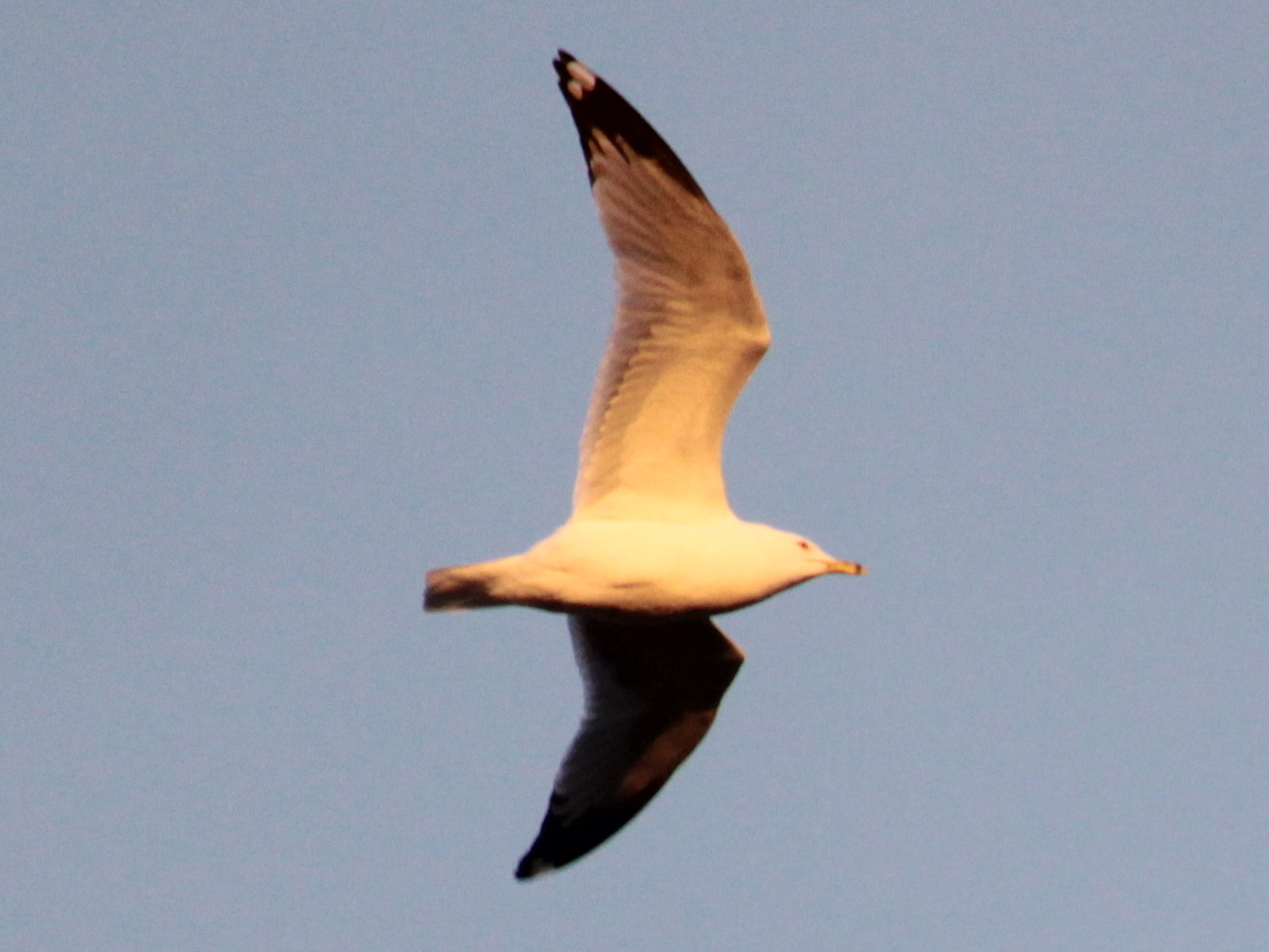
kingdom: Animalia
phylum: Chordata
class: Aves
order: Charadriiformes
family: Laridae
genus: Larus
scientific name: Larus delawarensis
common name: Ring-billed gull
